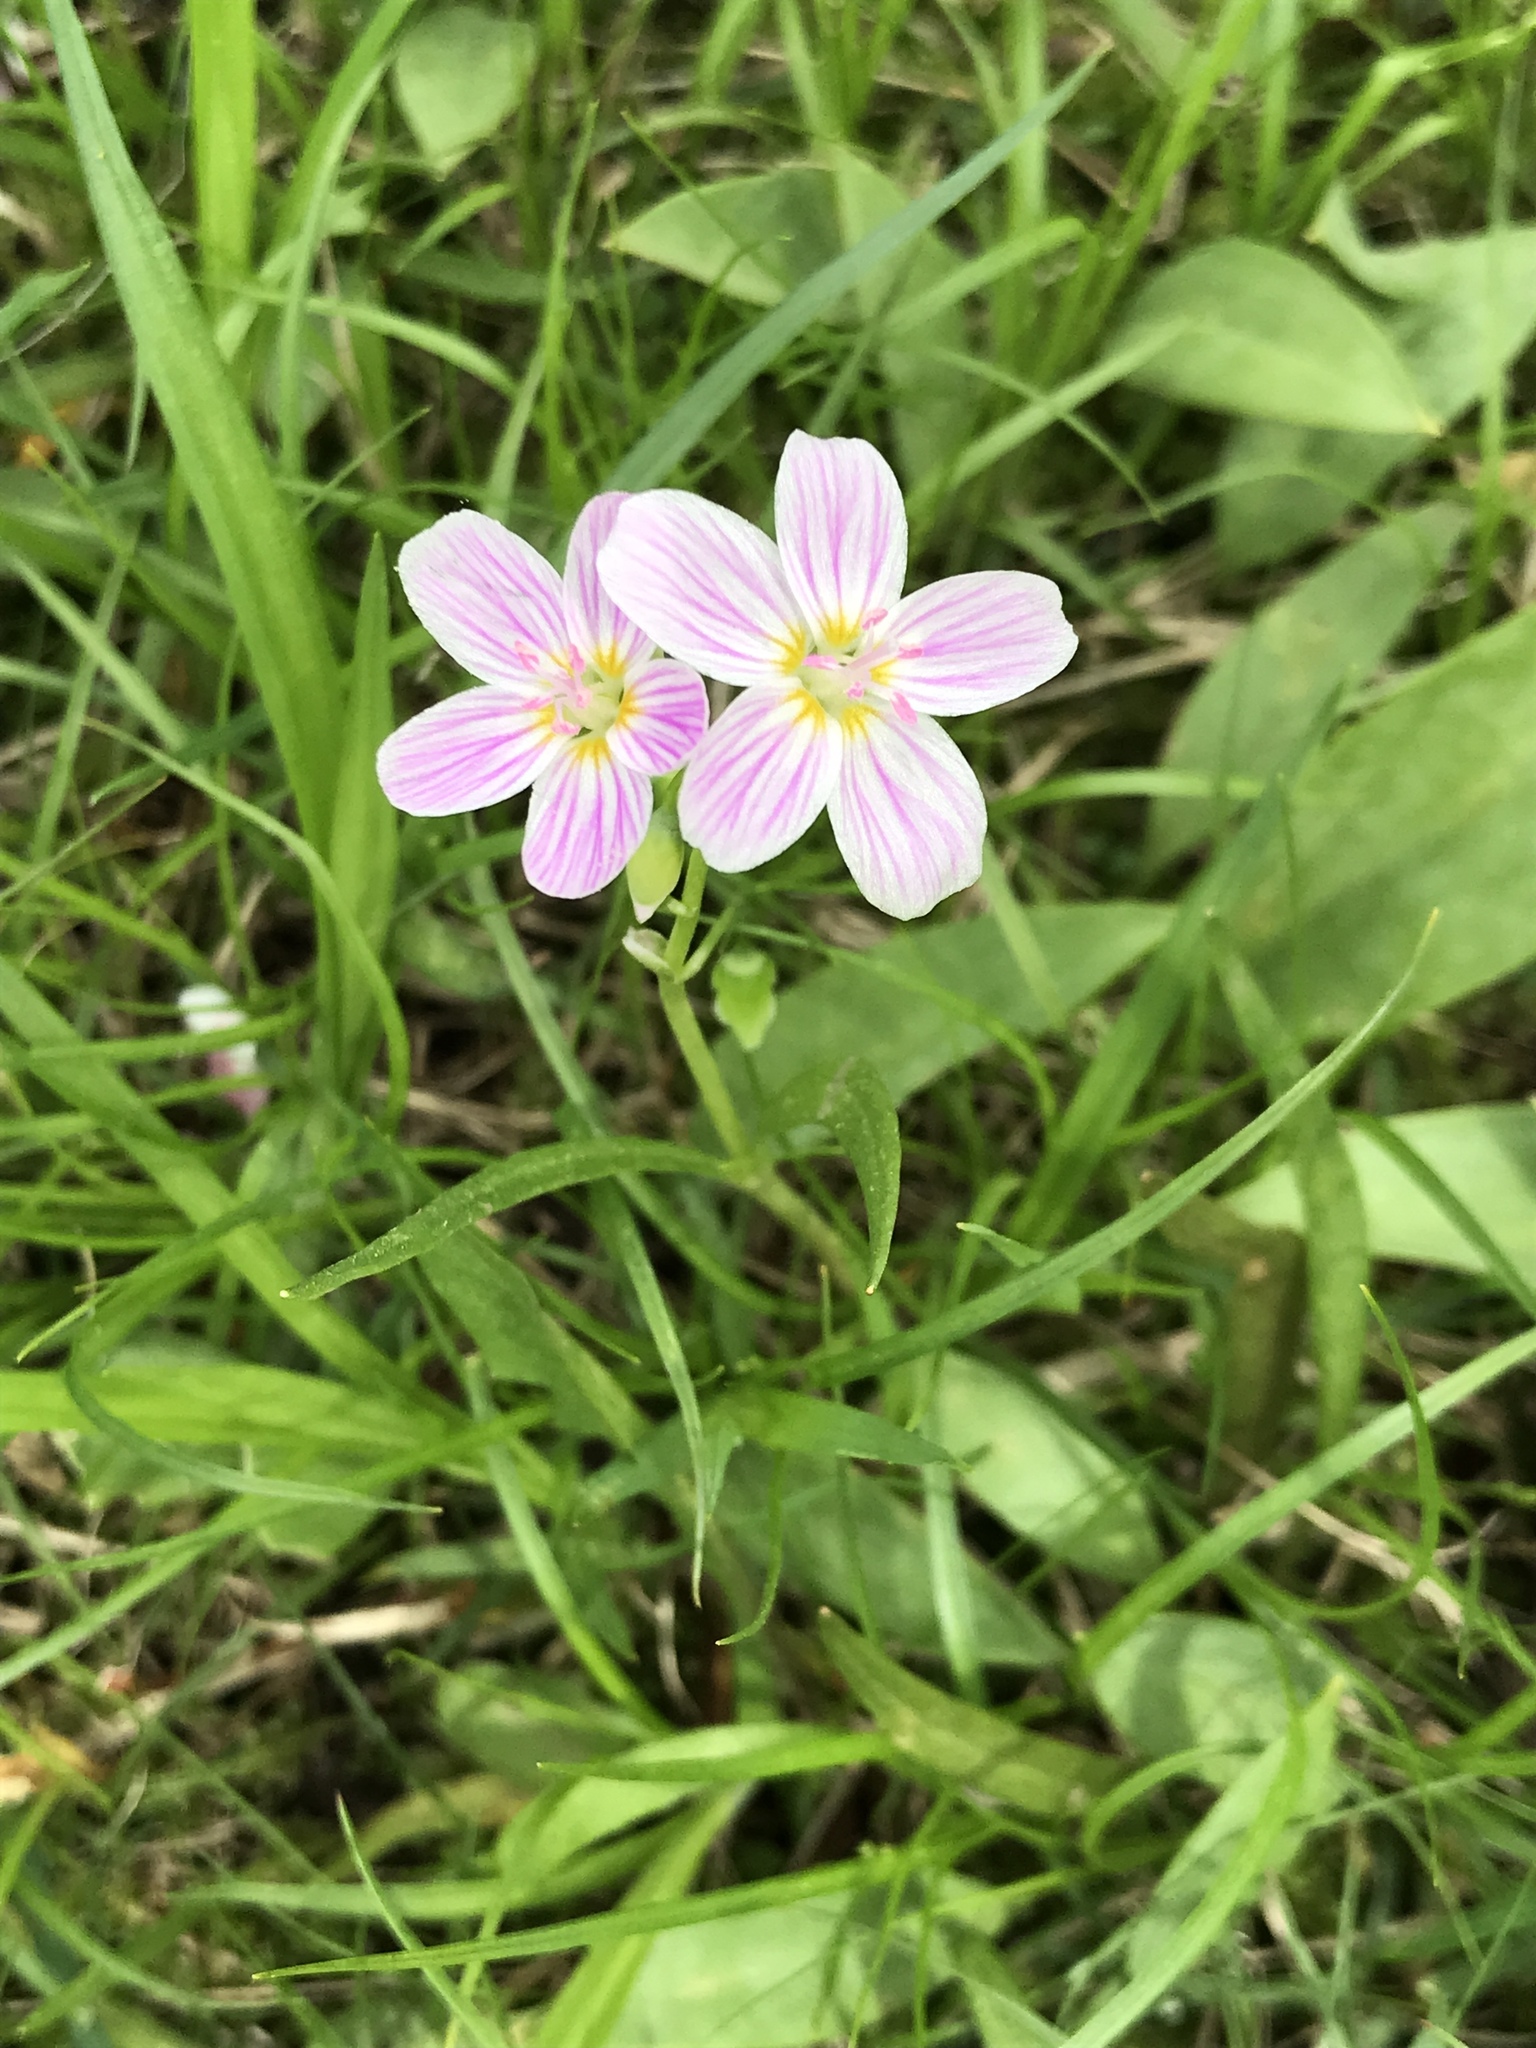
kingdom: Plantae
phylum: Tracheophyta
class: Magnoliopsida
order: Caryophyllales
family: Montiaceae
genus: Claytonia
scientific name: Claytonia virginica
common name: Virginia springbeauty
